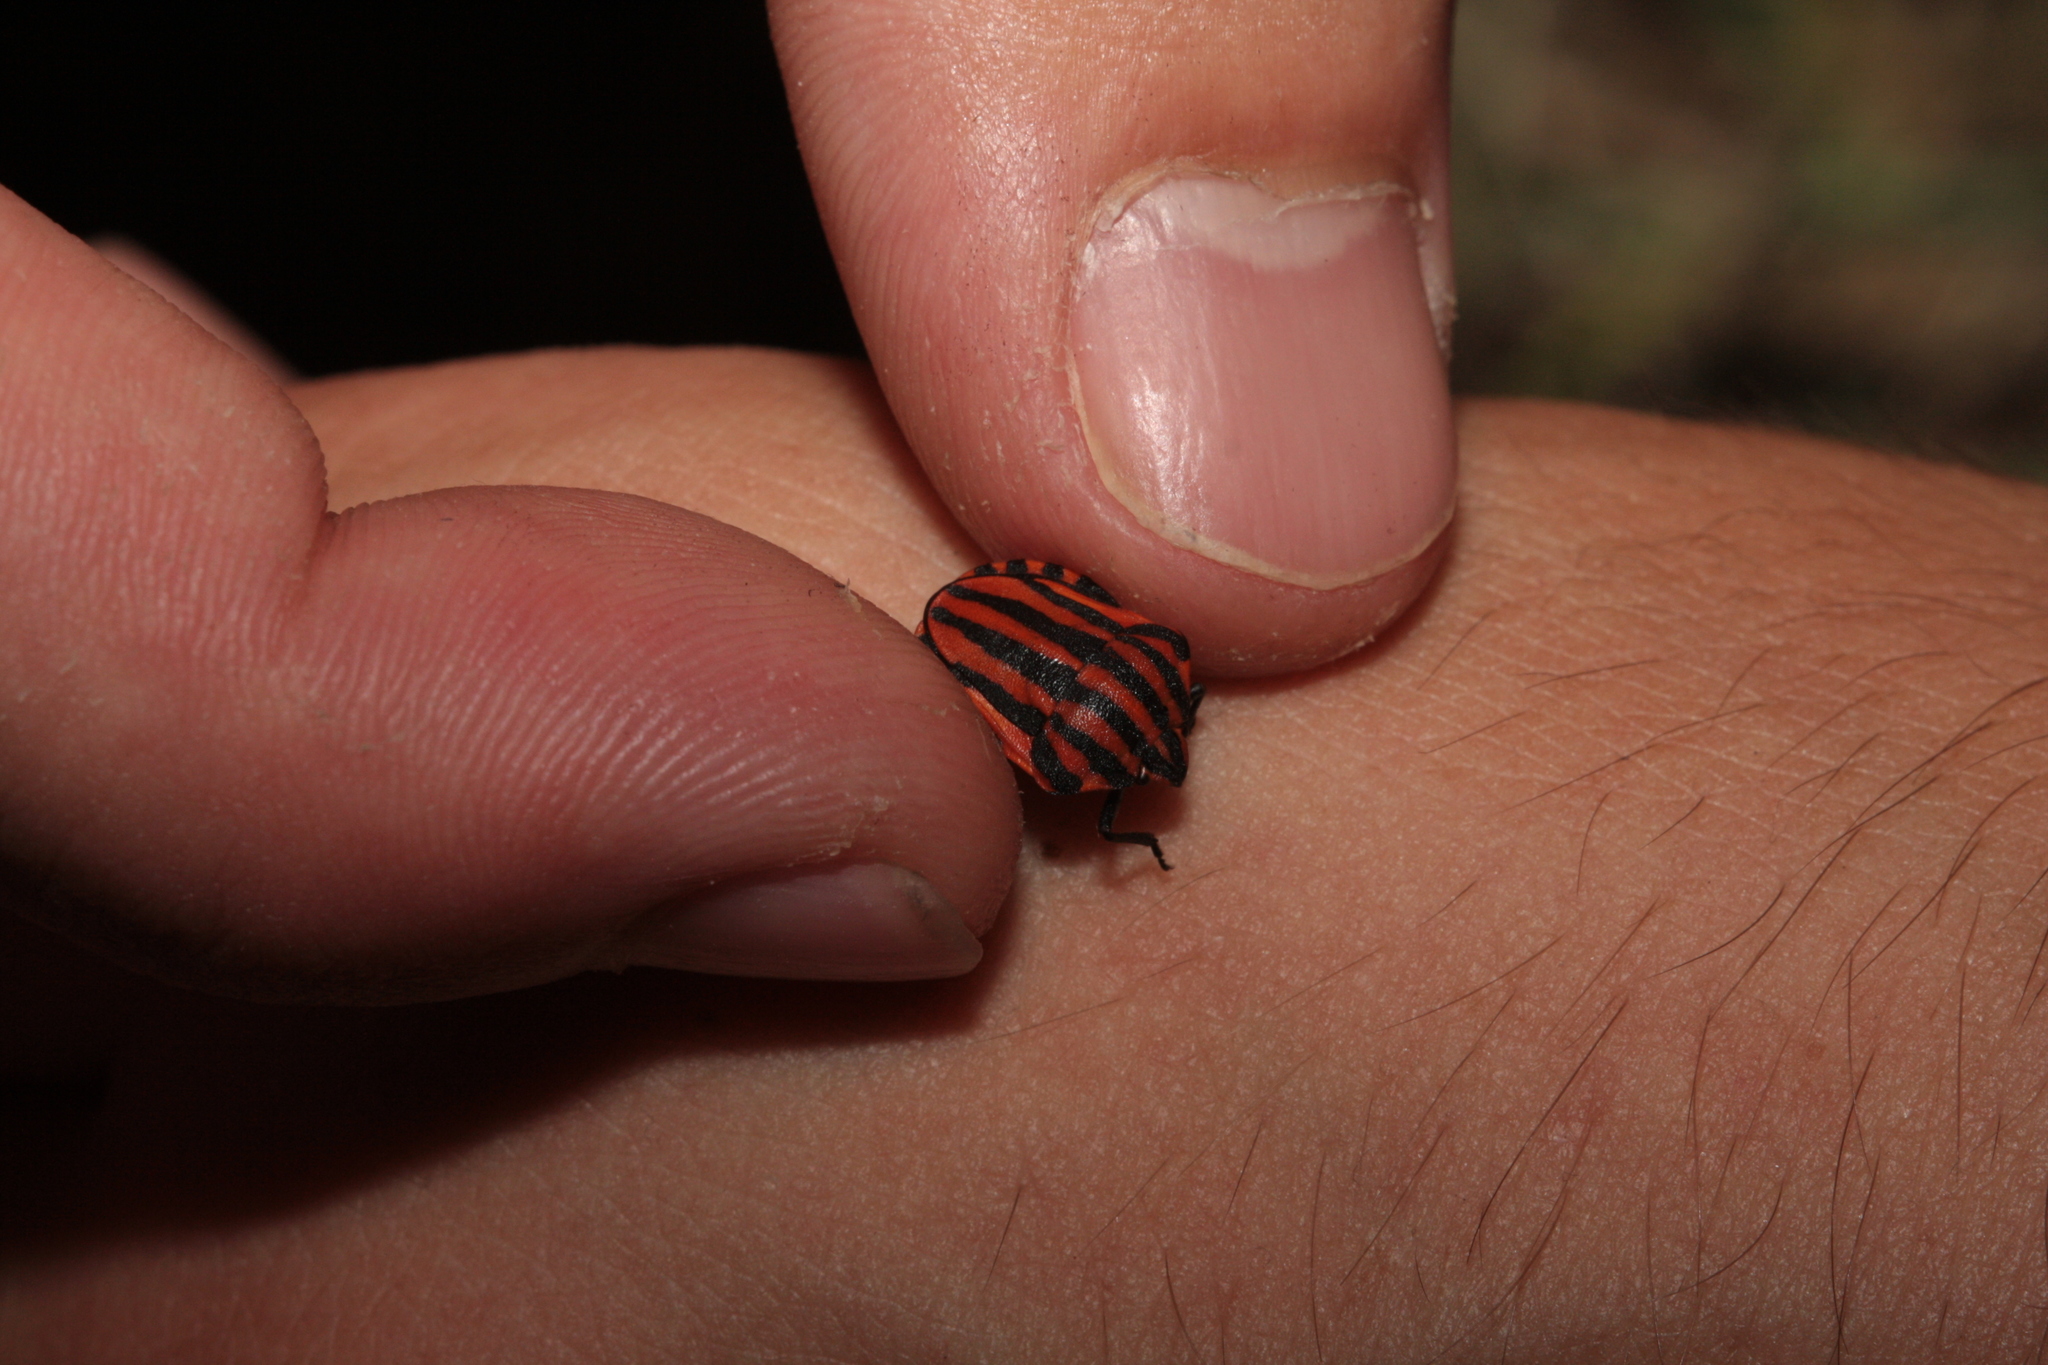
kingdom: Animalia
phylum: Arthropoda
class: Insecta
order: Hemiptera
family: Pentatomidae
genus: Graphosoma
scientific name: Graphosoma italicum
